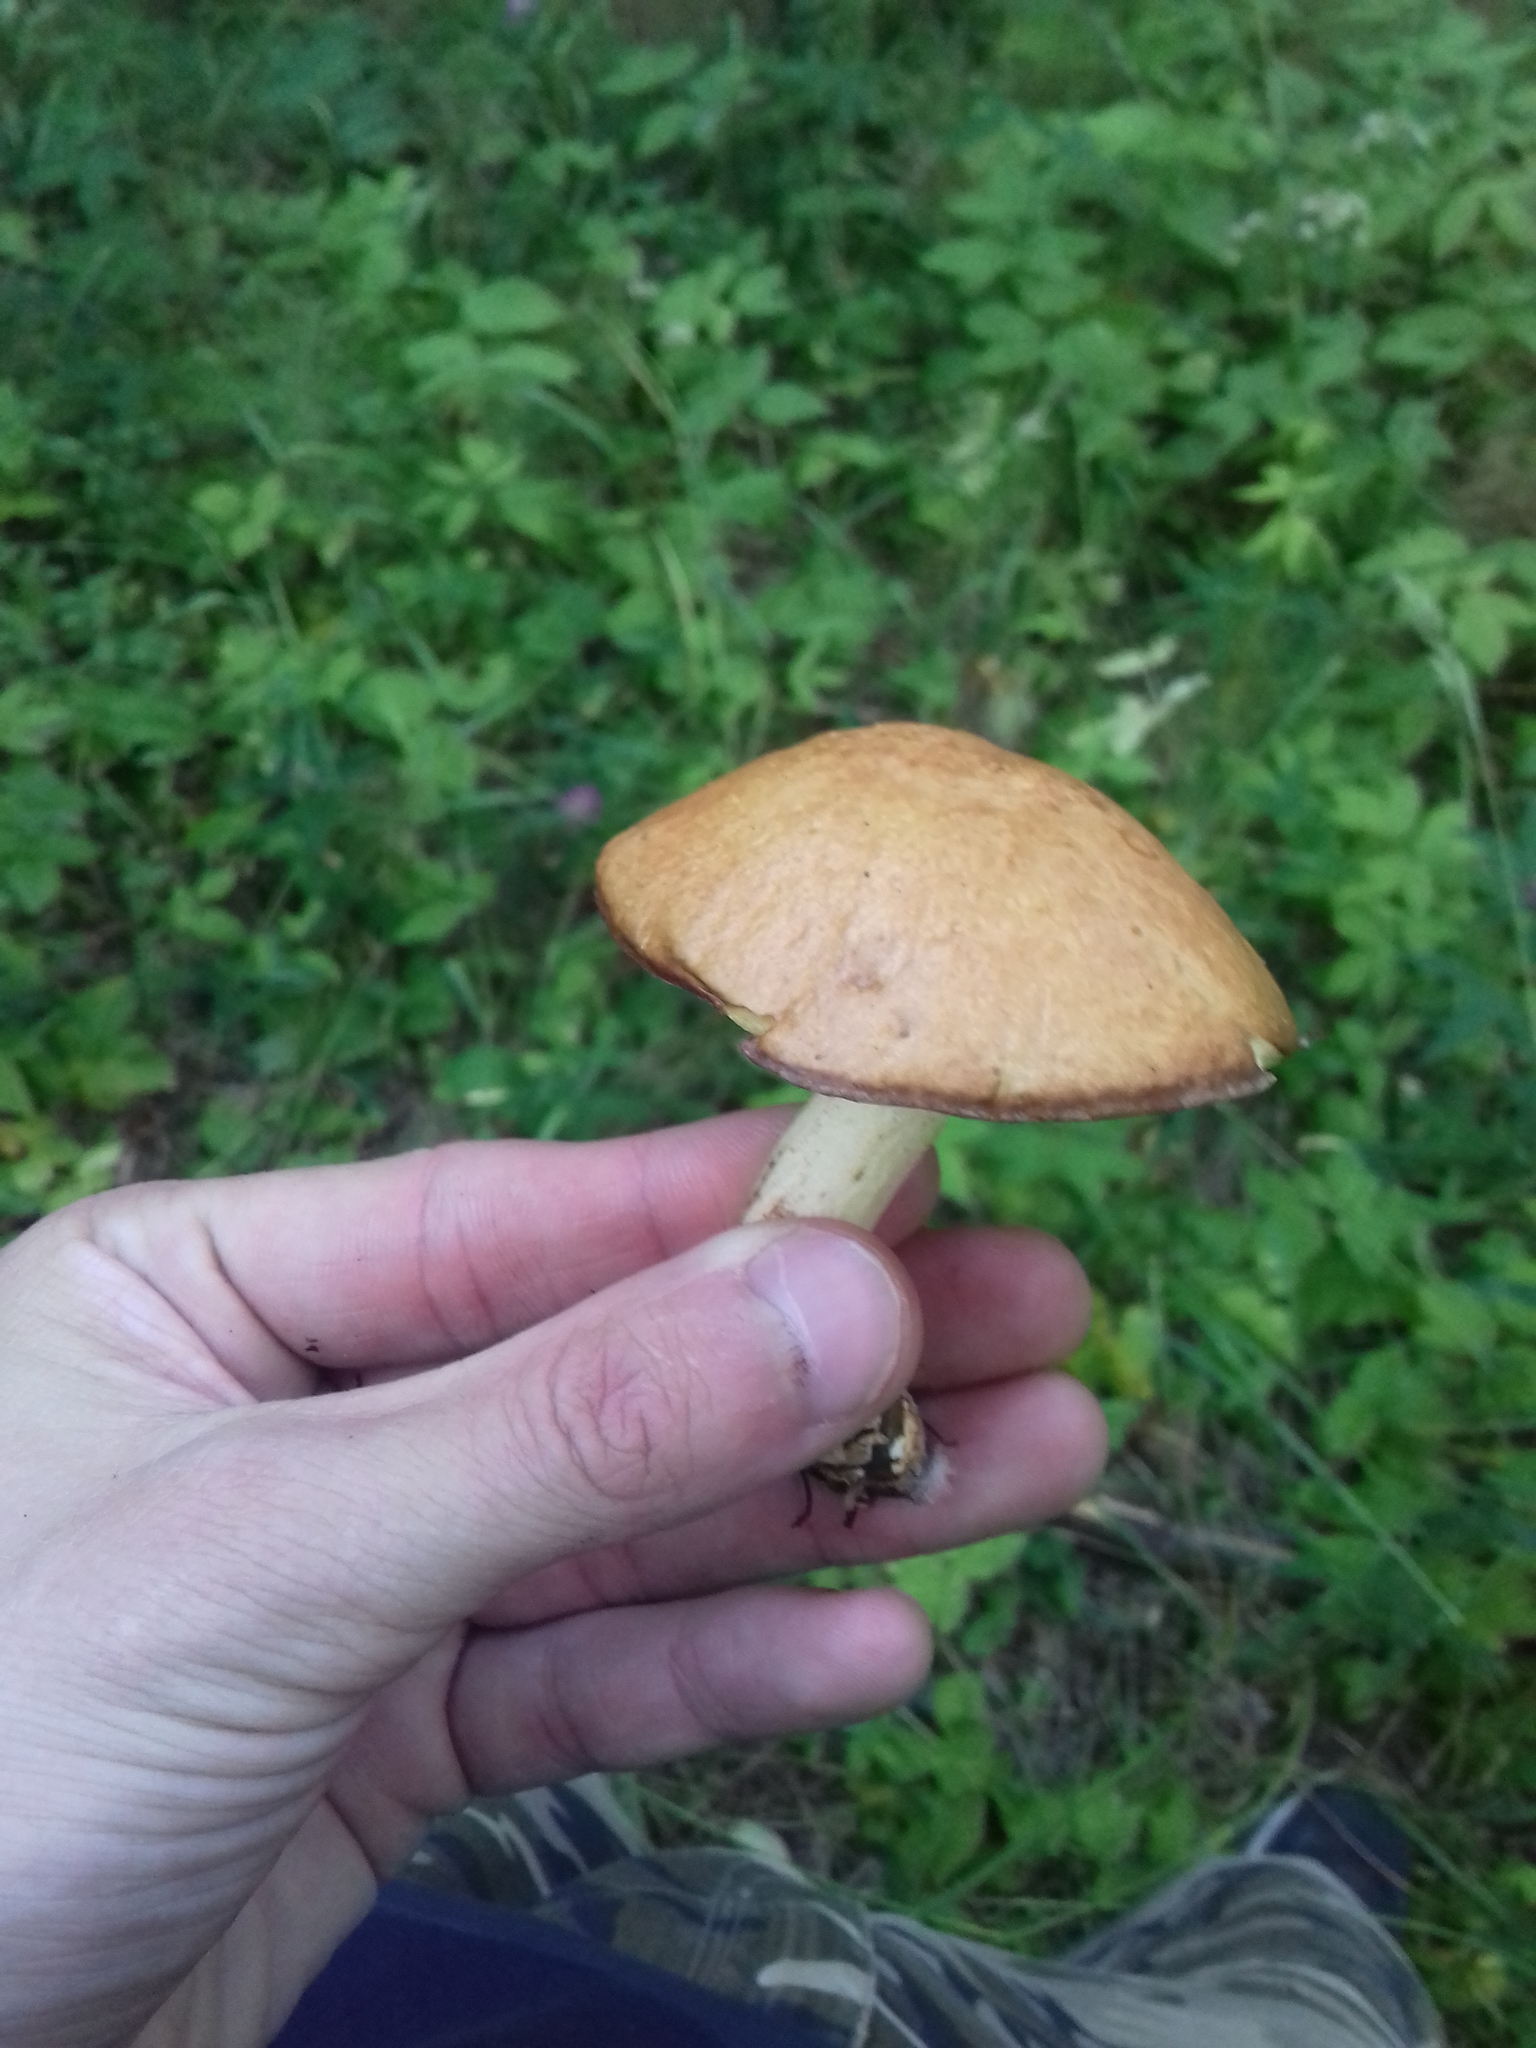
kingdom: Fungi
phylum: Basidiomycota
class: Agaricomycetes
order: Boletales
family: Suillaceae
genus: Suillus
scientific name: Suillus granulatus
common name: Weeping bolete
